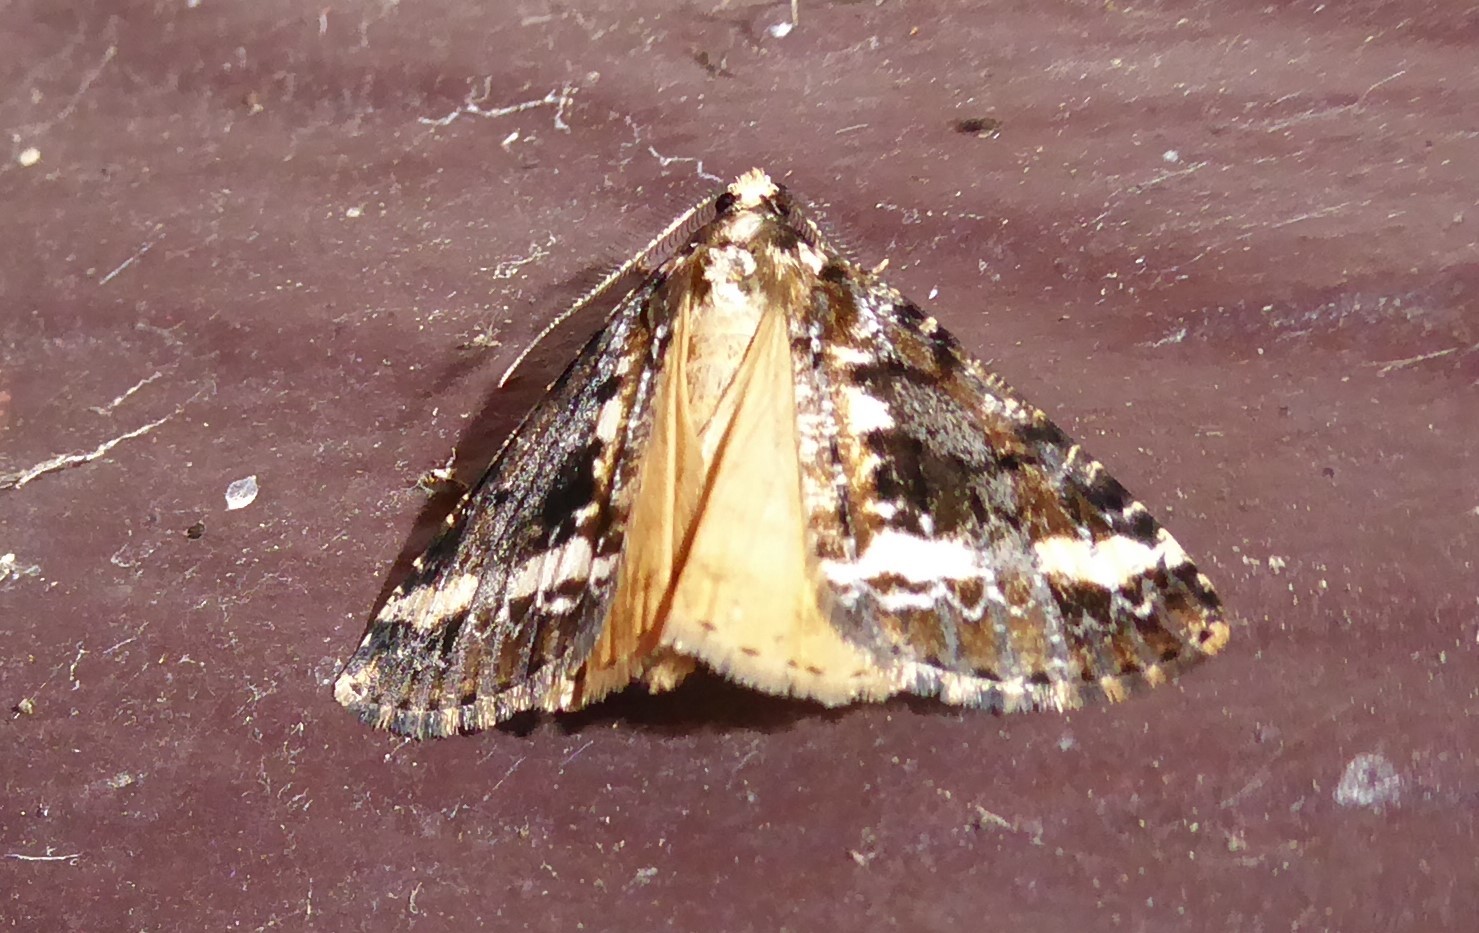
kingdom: Animalia
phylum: Arthropoda
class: Insecta
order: Lepidoptera
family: Geometridae
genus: Pseudocoremia
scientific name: Pseudocoremia leucelaea
